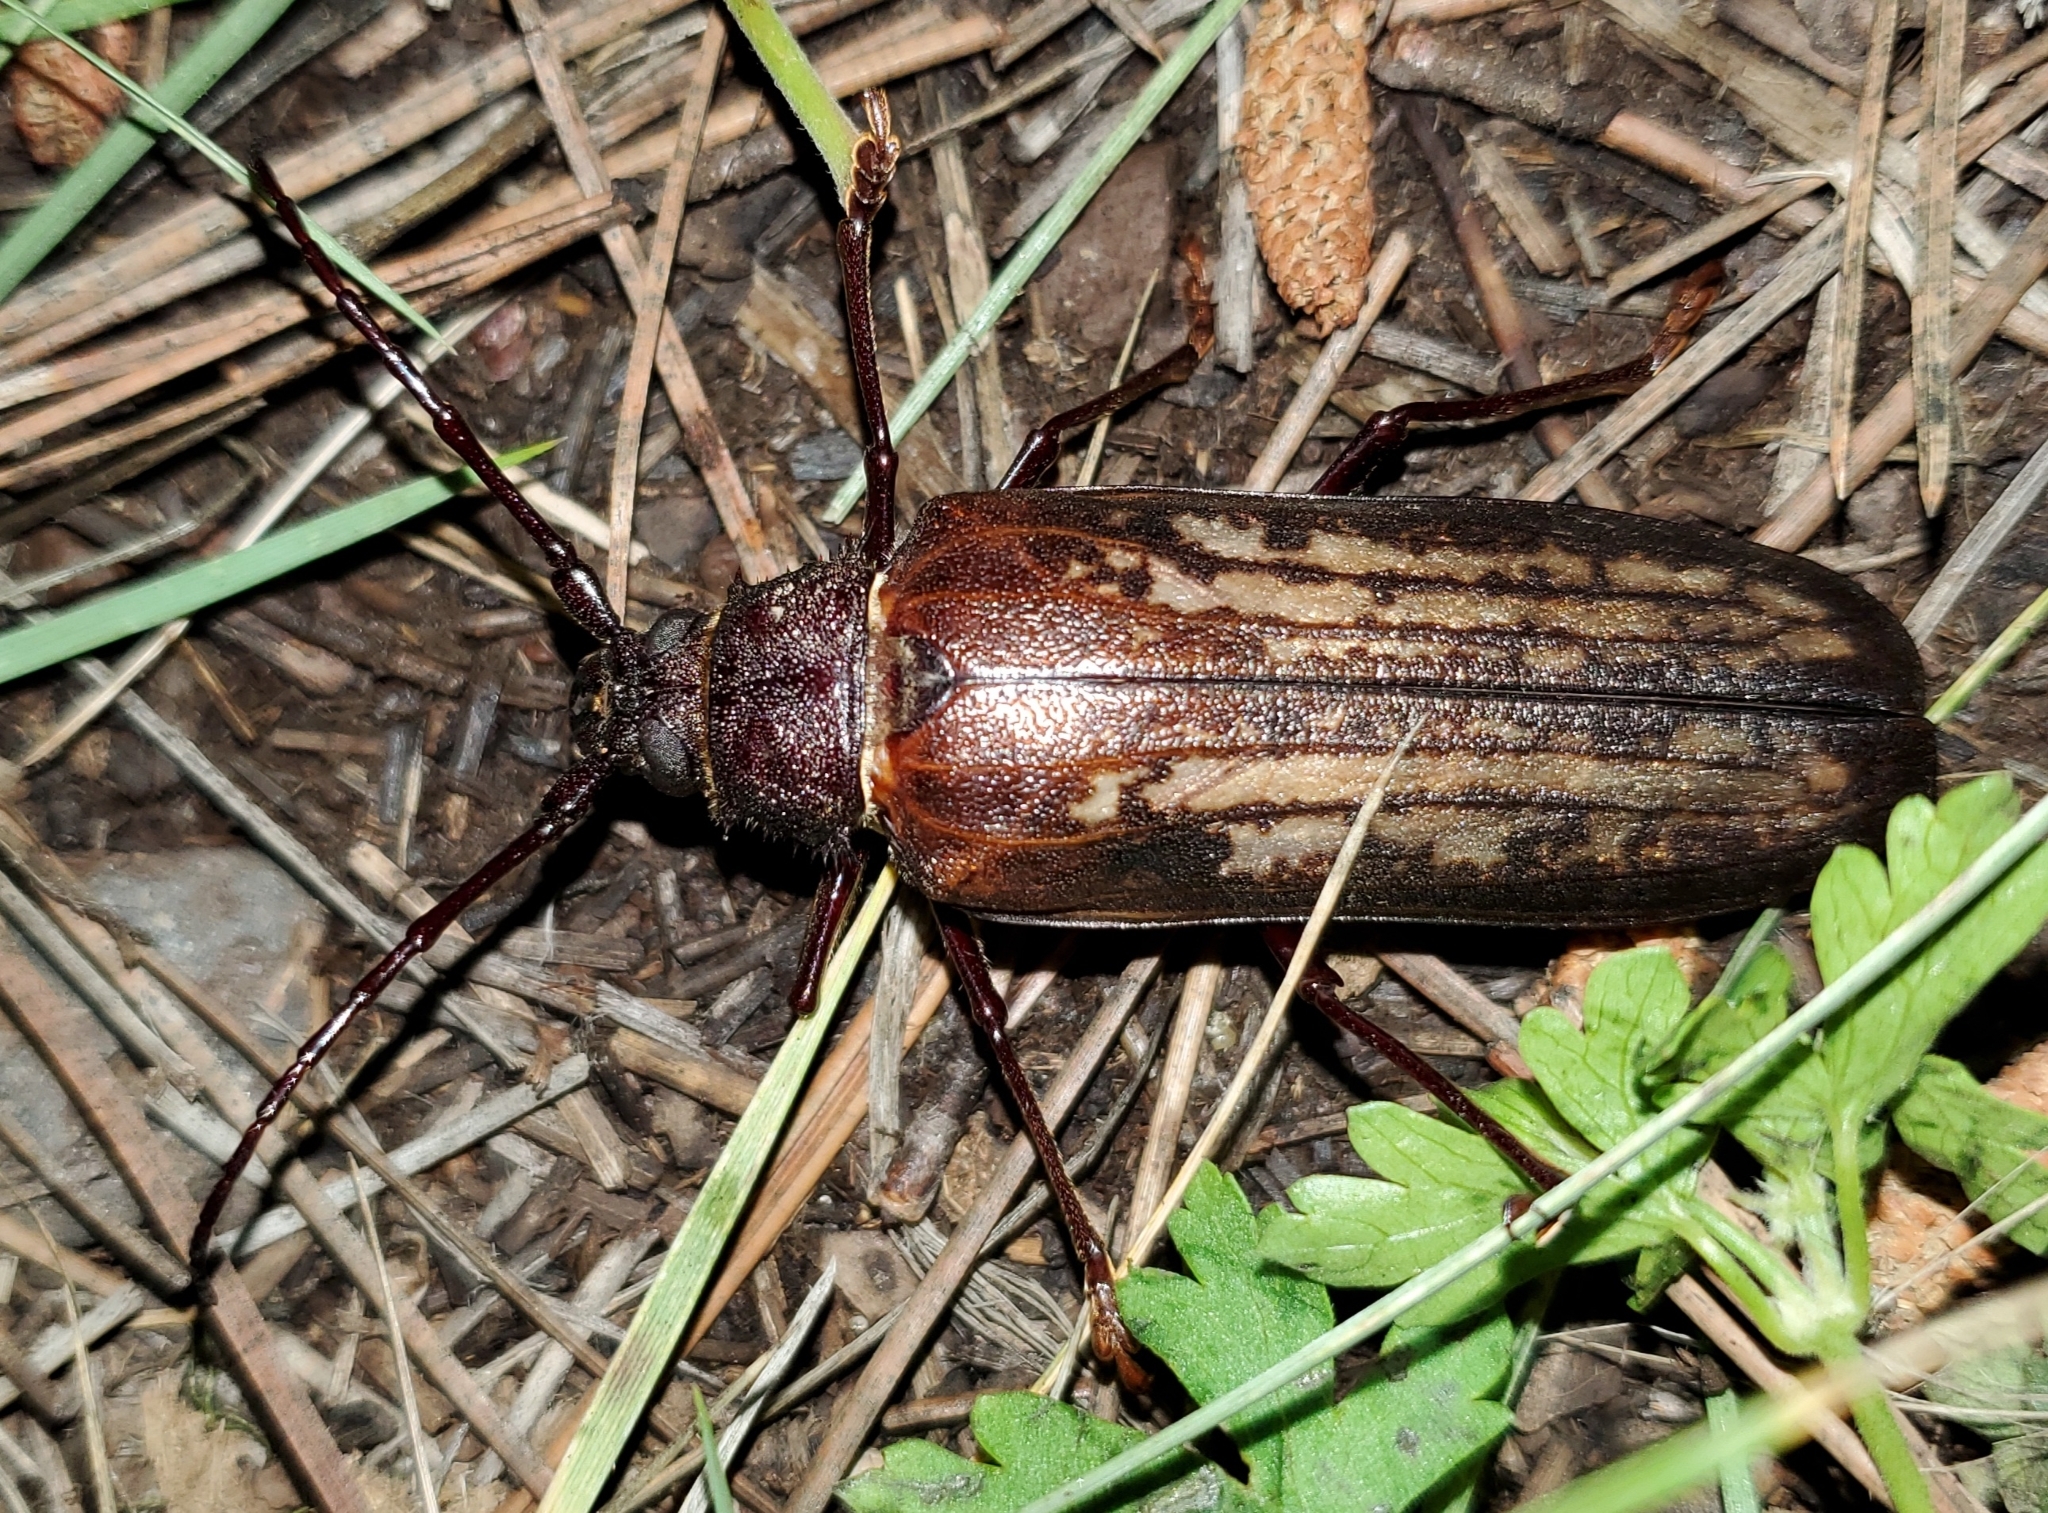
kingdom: Animalia
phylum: Arthropoda
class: Insecta
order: Coleoptera
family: Cerambycidae
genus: Trichocnemis
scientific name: Trichocnemis spiculatus
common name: Long-horned beetle
